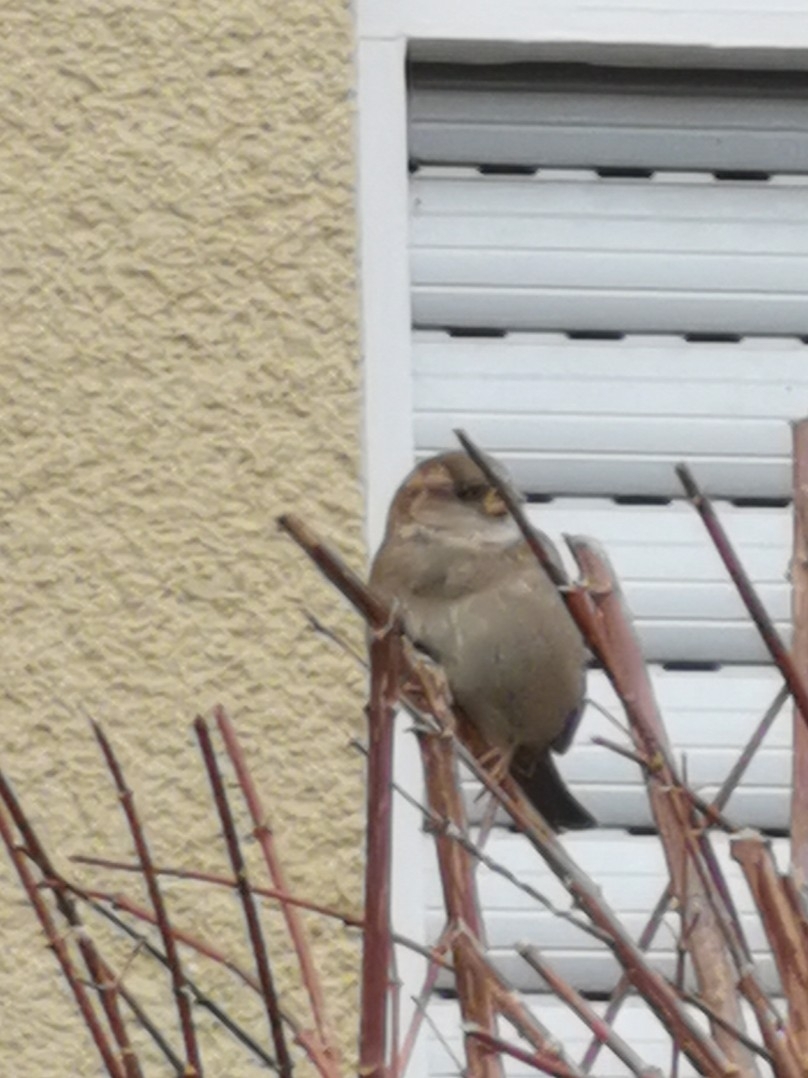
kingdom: Animalia
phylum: Chordata
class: Aves
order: Passeriformes
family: Passeridae
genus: Passer
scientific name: Passer domesticus
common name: House sparrow
